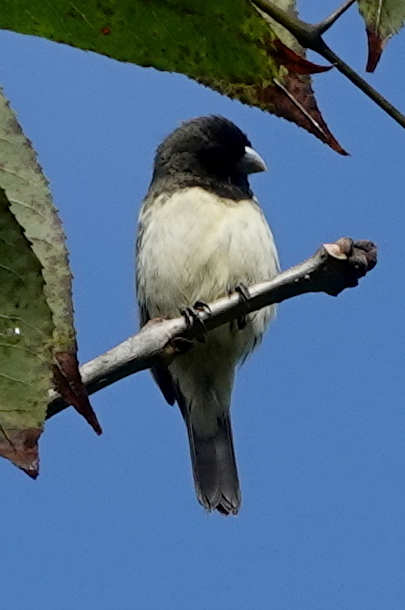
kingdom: Animalia
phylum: Chordata
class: Aves
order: Passeriformes
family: Thraupidae
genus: Sporophila
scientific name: Sporophila nigricollis
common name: Yellow-bellied seedeater
